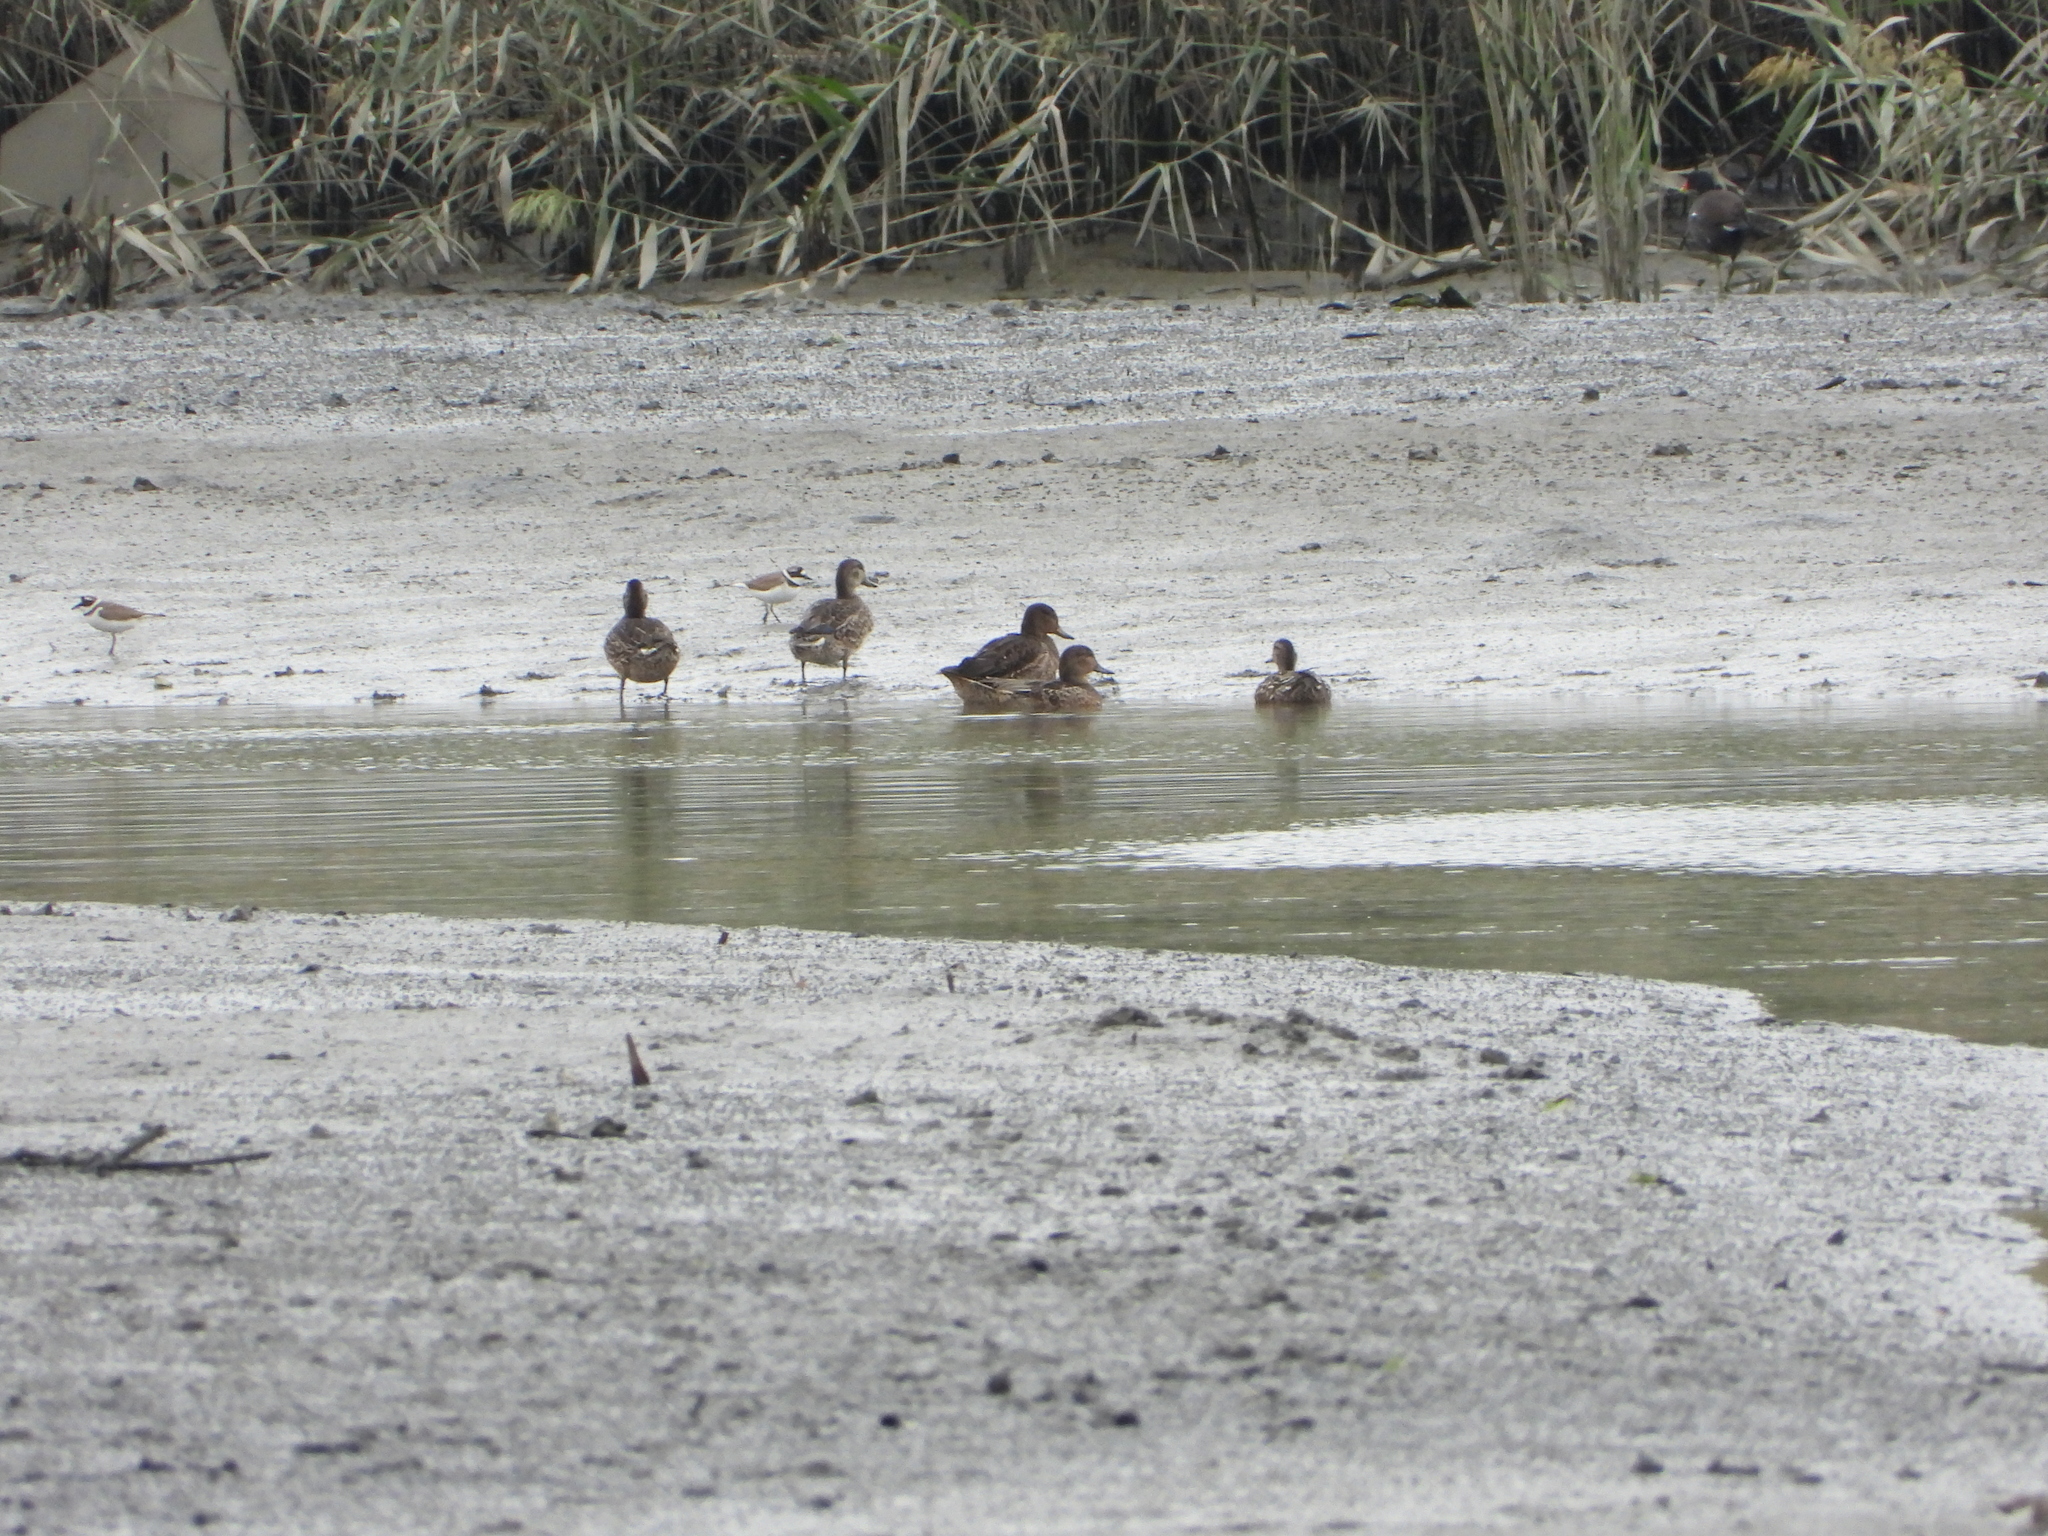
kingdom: Animalia
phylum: Chordata
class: Aves
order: Anseriformes
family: Anatidae
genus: Anas
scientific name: Anas crecca
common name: Eurasian teal
